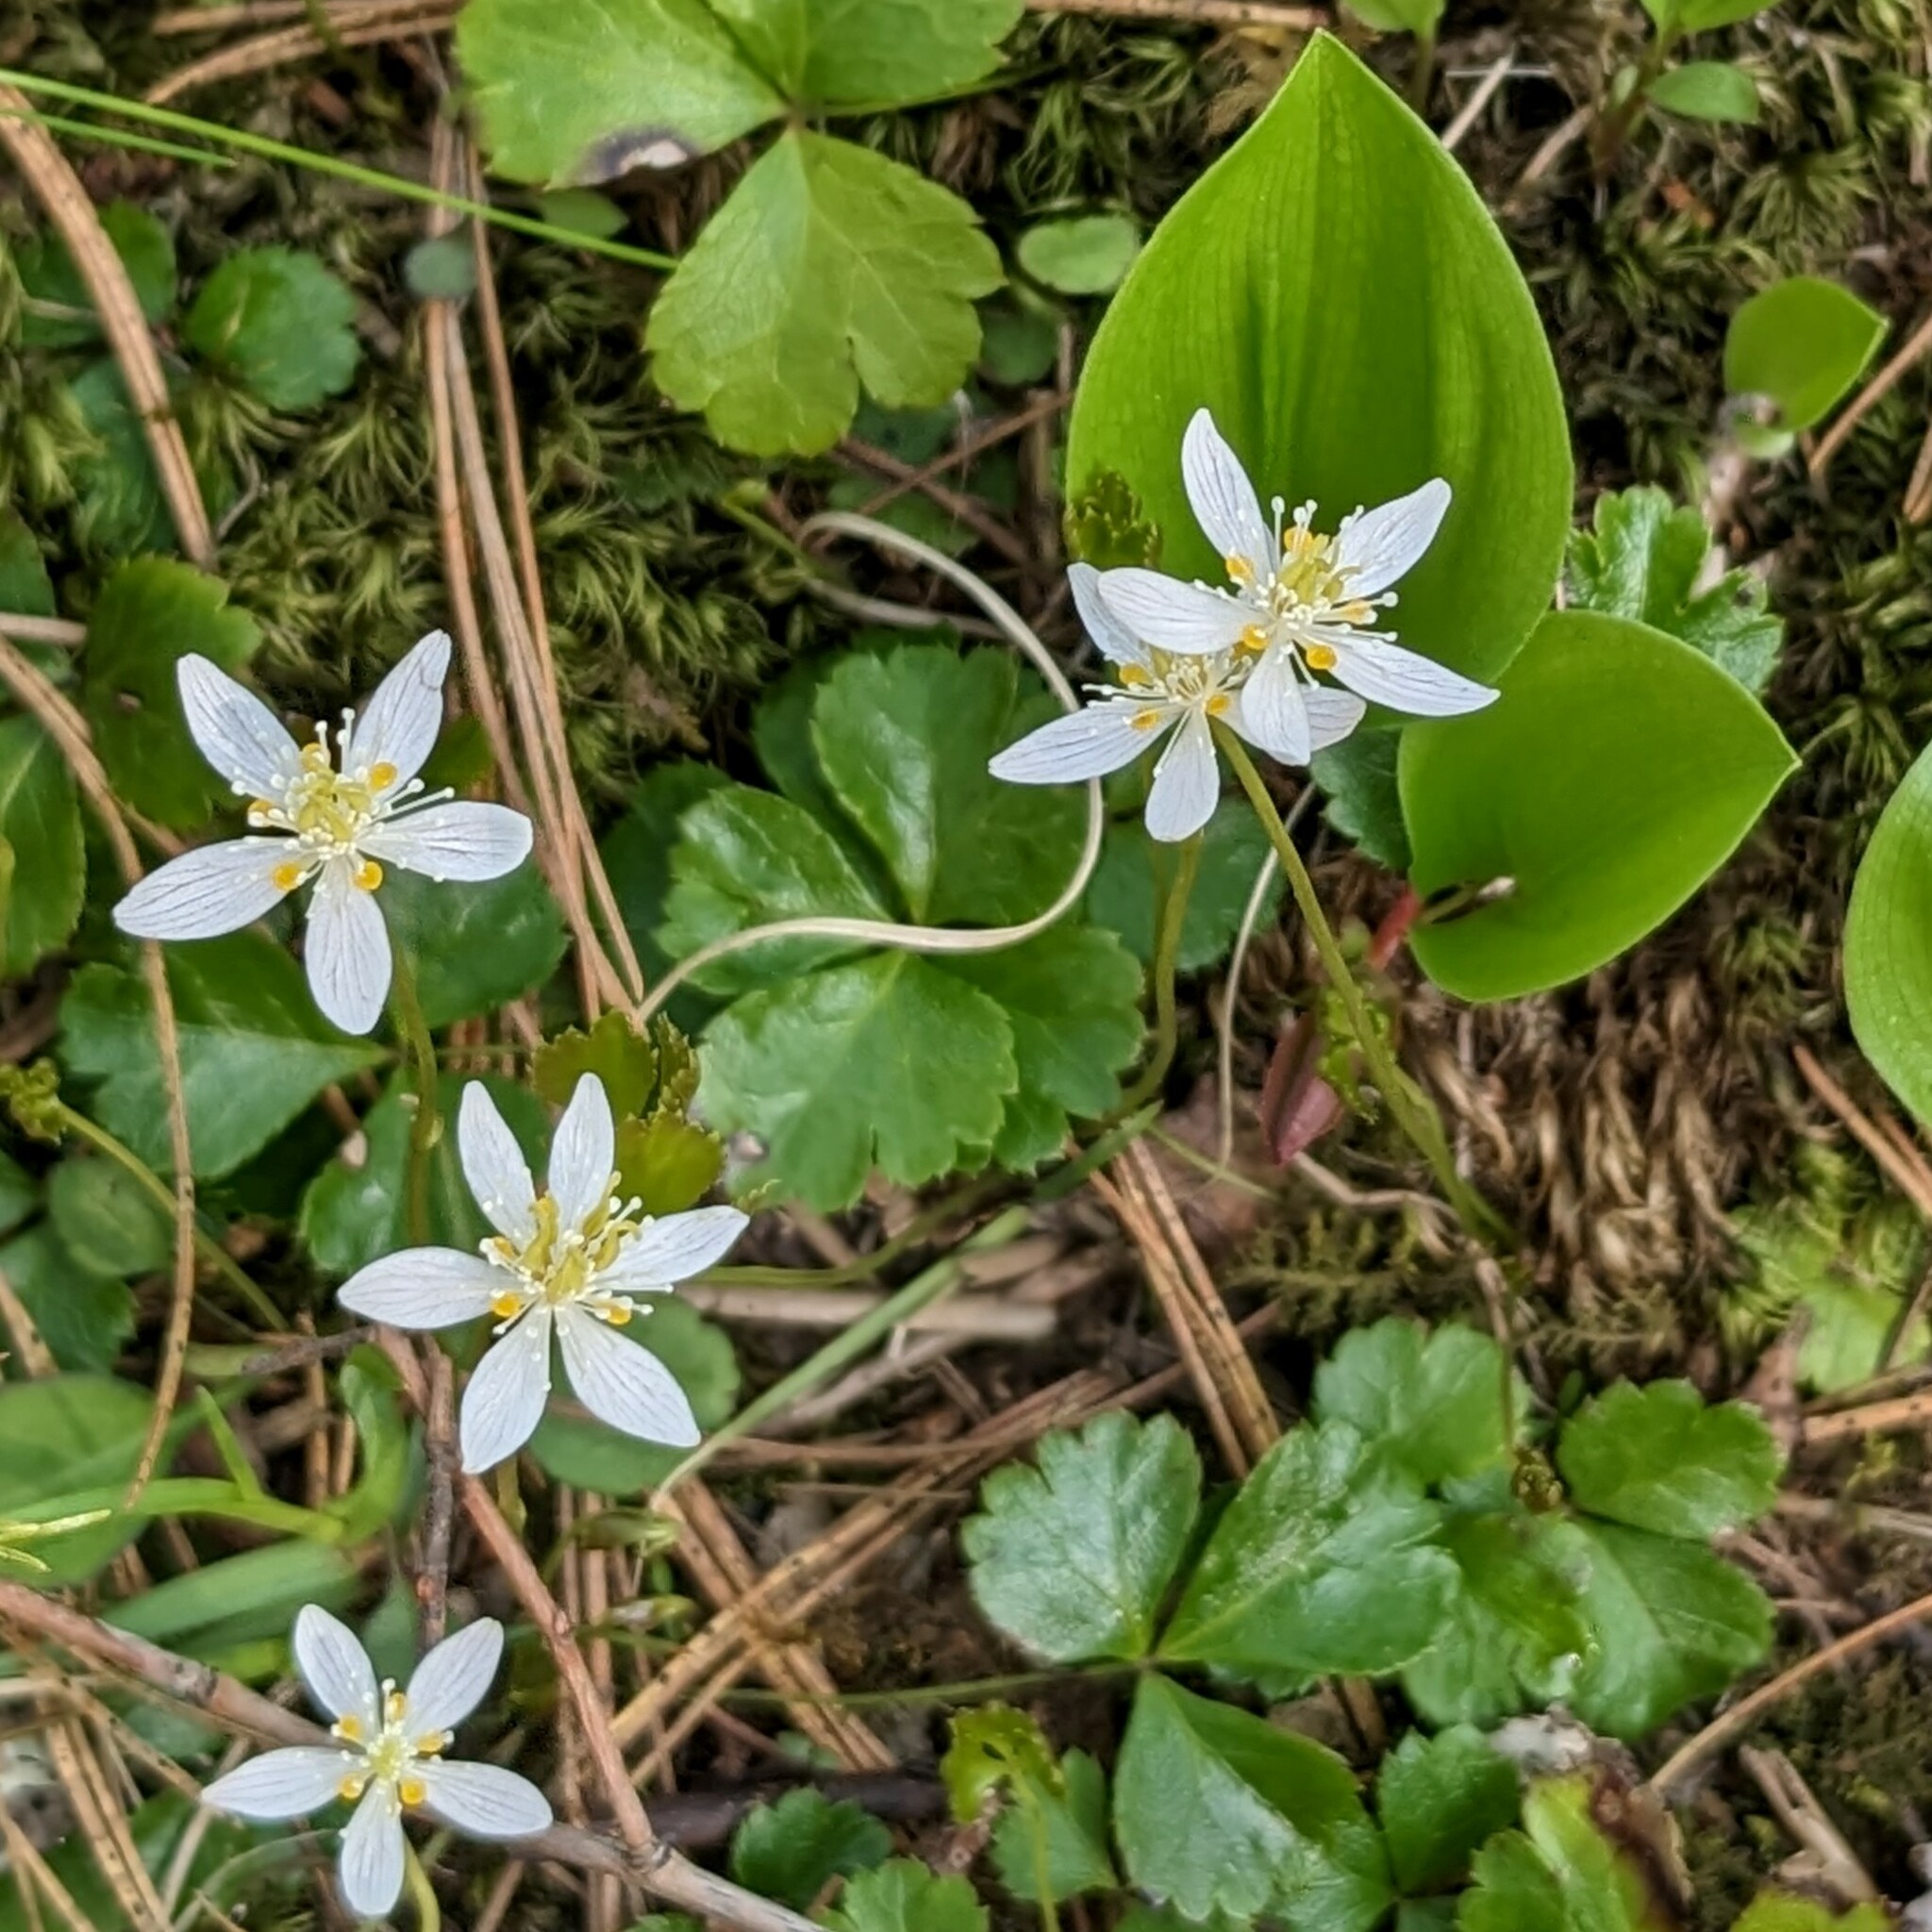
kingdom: Plantae
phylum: Tracheophyta
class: Magnoliopsida
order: Ranunculales
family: Ranunculaceae
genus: Coptis
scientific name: Coptis trifolia
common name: Canker-root
